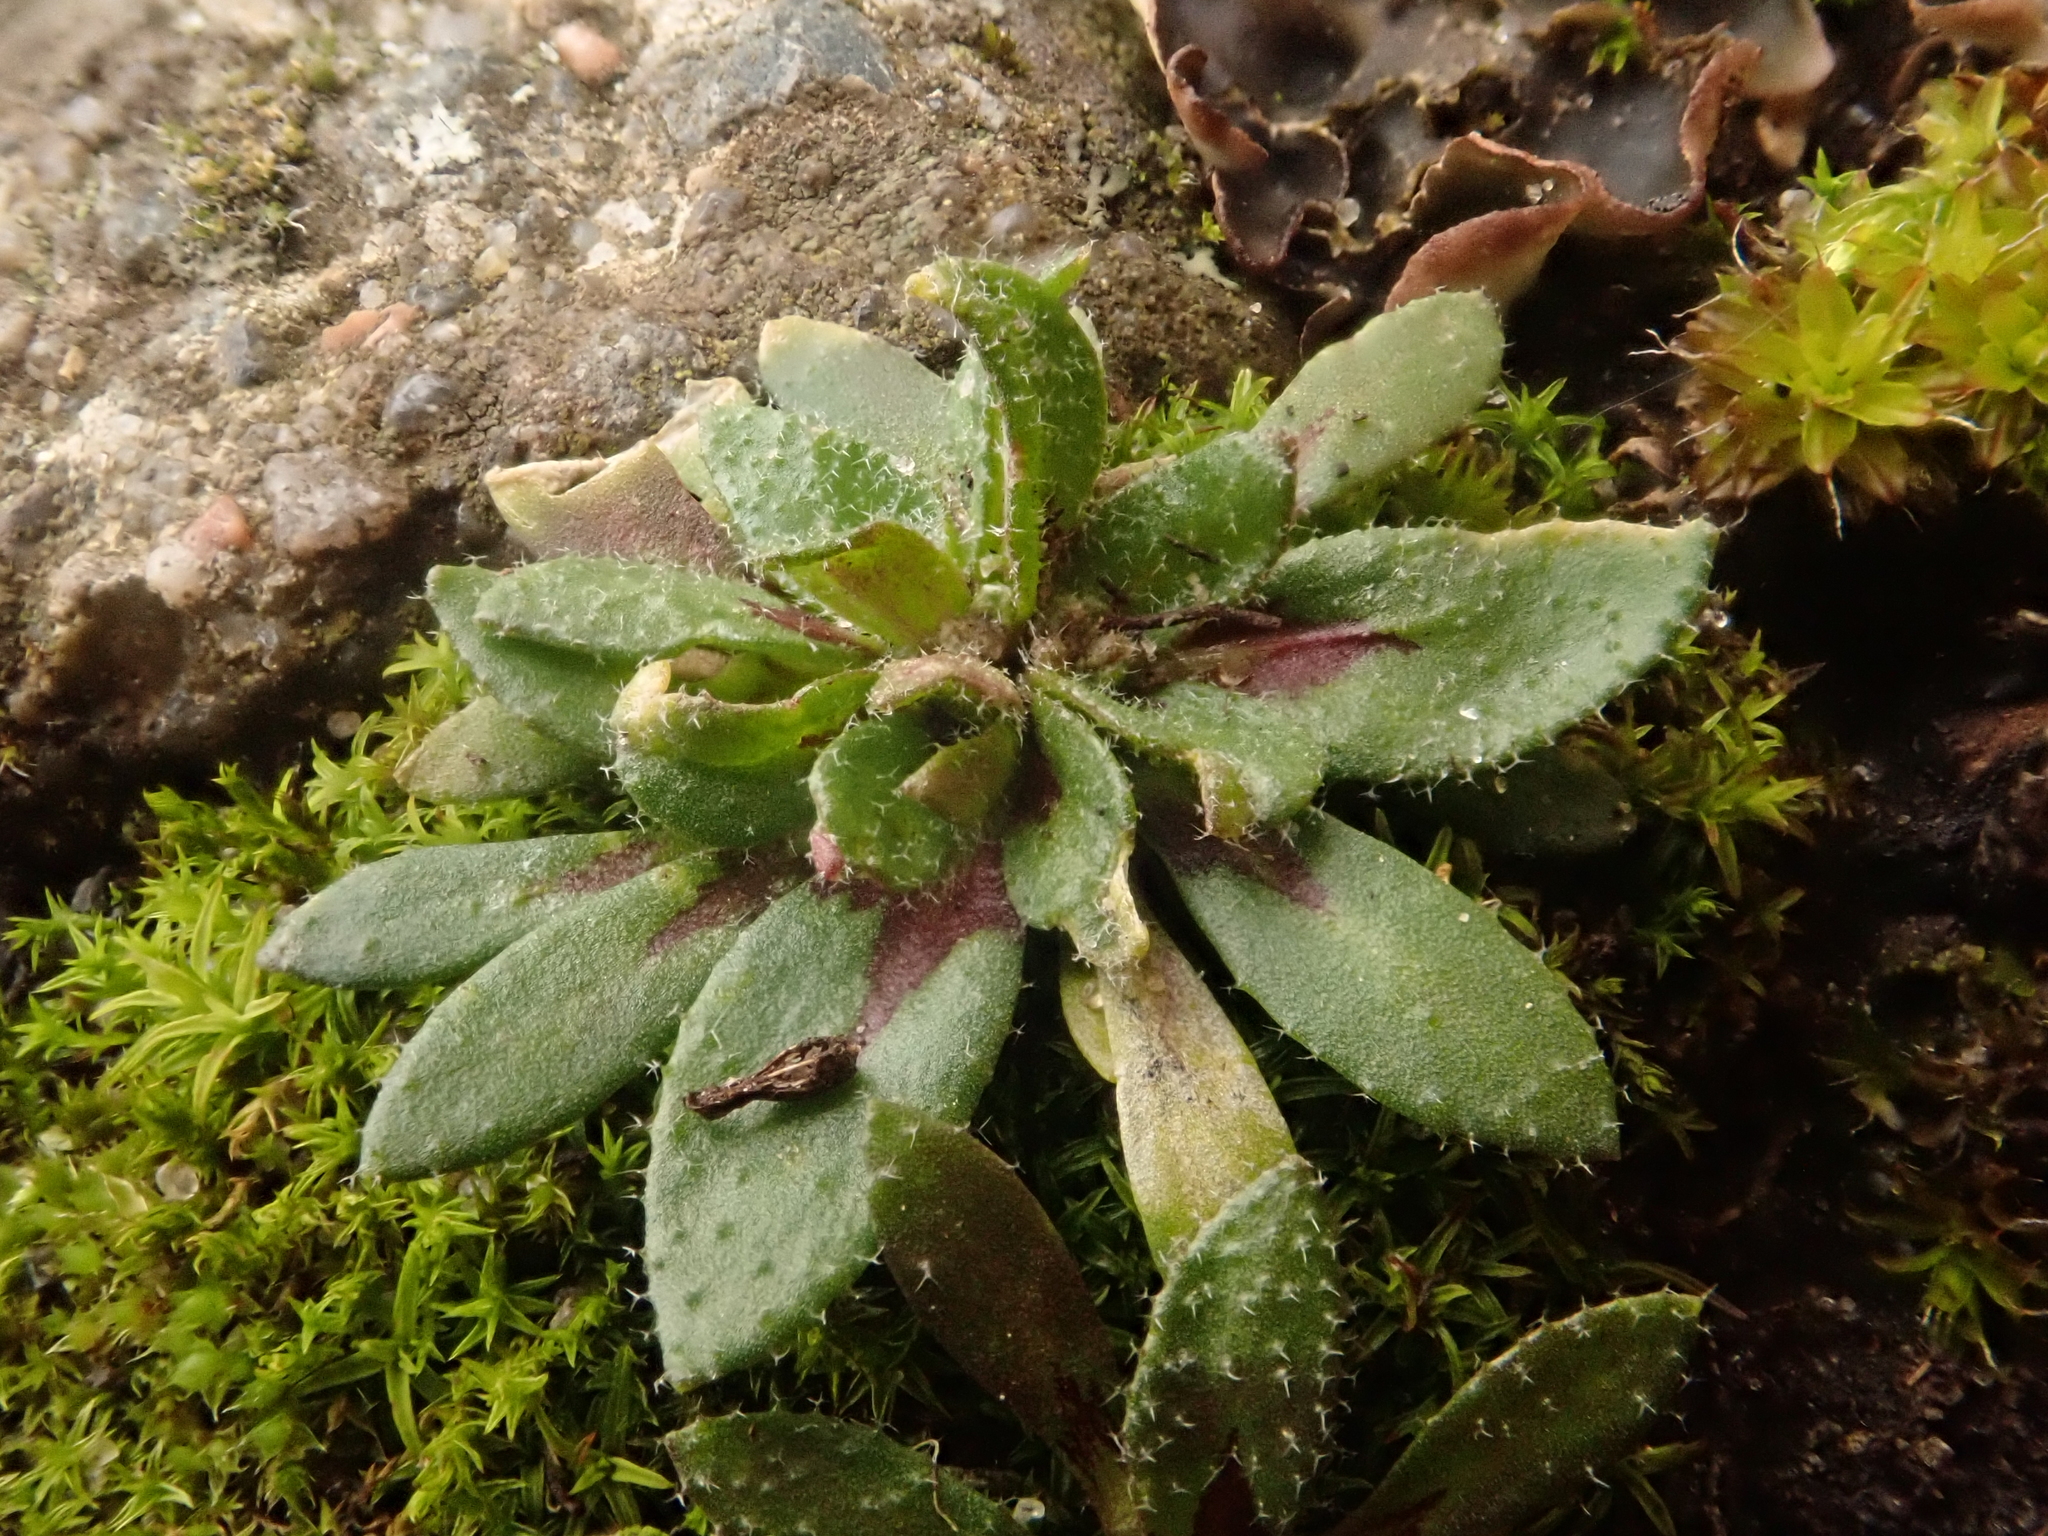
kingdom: Plantae
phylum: Tracheophyta
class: Magnoliopsida
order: Brassicales
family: Brassicaceae
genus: Draba
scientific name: Draba verna
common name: Spring draba
